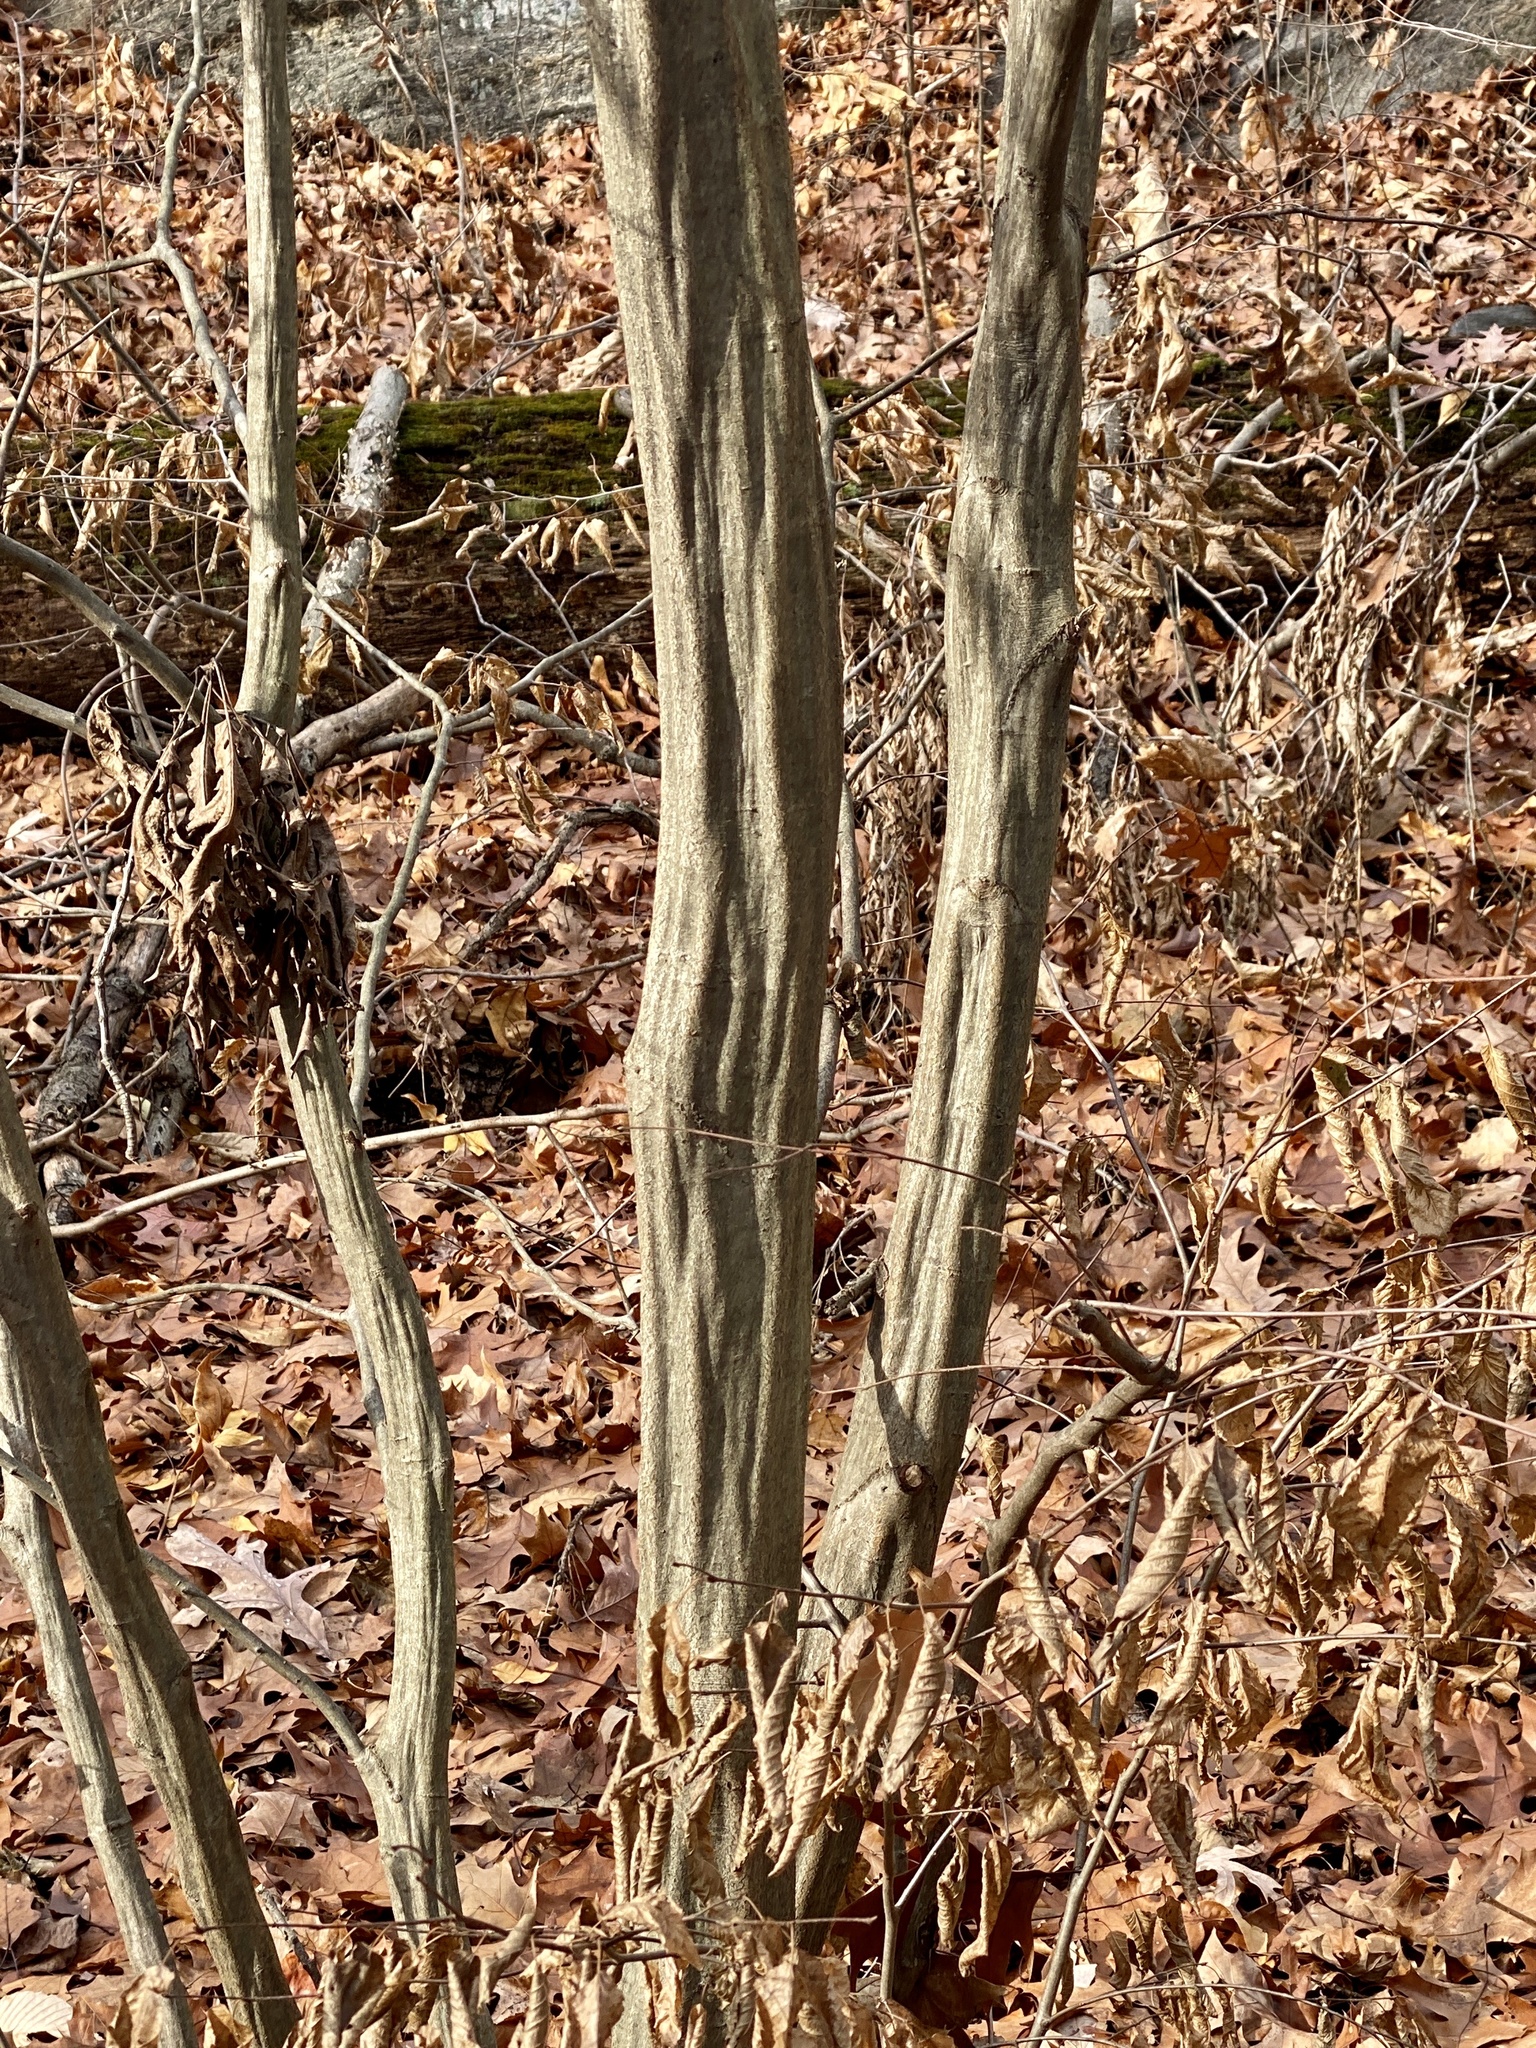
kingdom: Plantae
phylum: Tracheophyta
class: Magnoliopsida
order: Fagales
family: Betulaceae
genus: Carpinus
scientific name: Carpinus caroliniana
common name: American hornbeam
